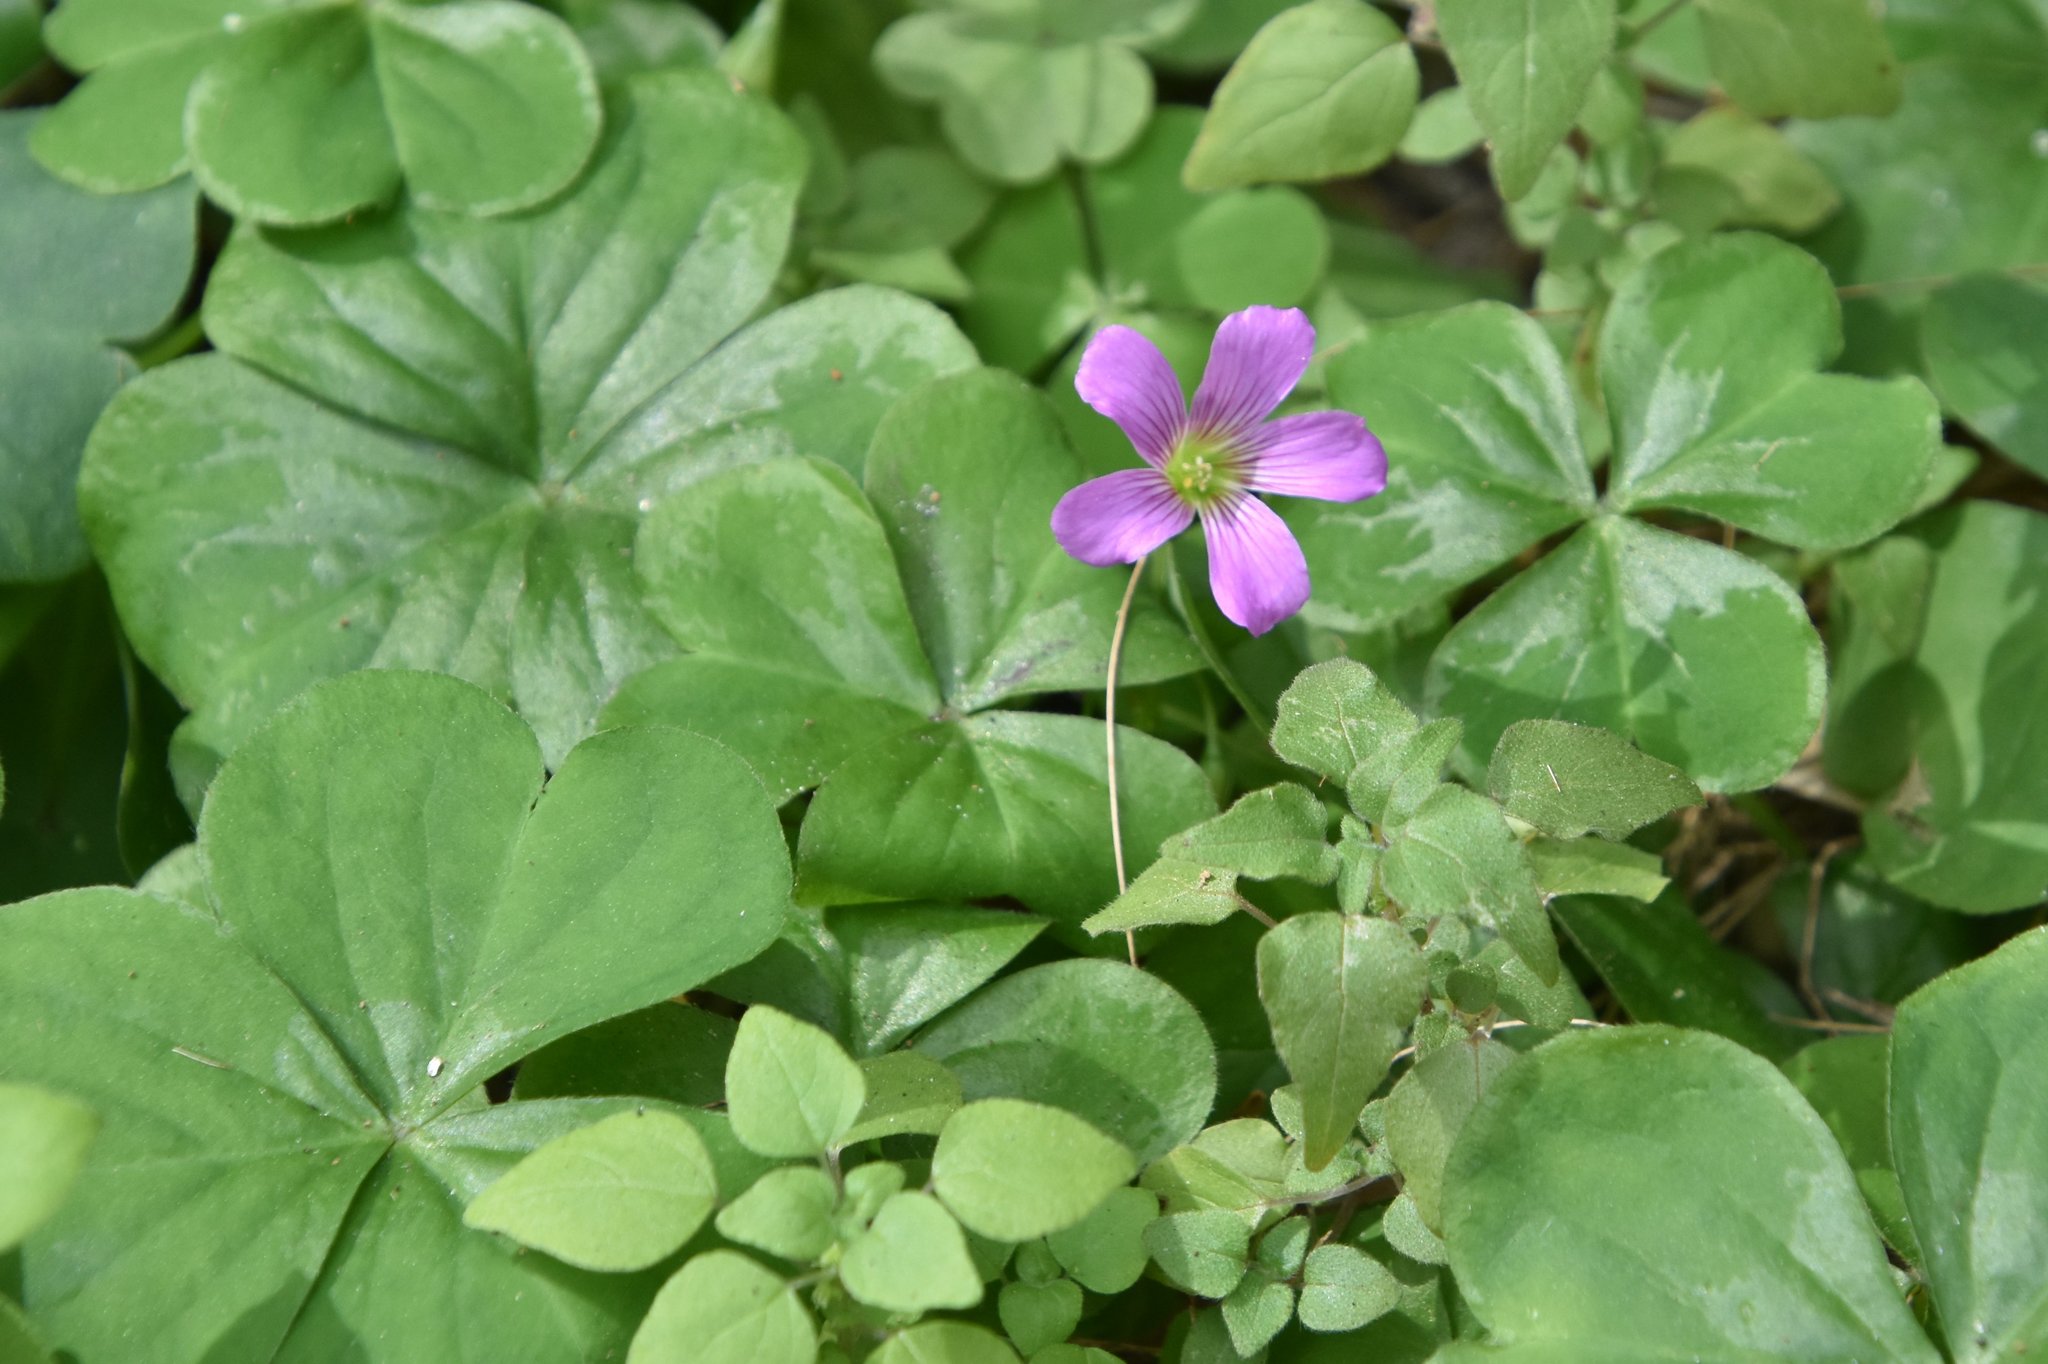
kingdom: Plantae
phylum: Tracheophyta
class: Magnoliopsida
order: Oxalidales
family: Oxalidaceae
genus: Oxalis
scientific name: Oxalis debilis
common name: Large-flowered pink-sorrel
